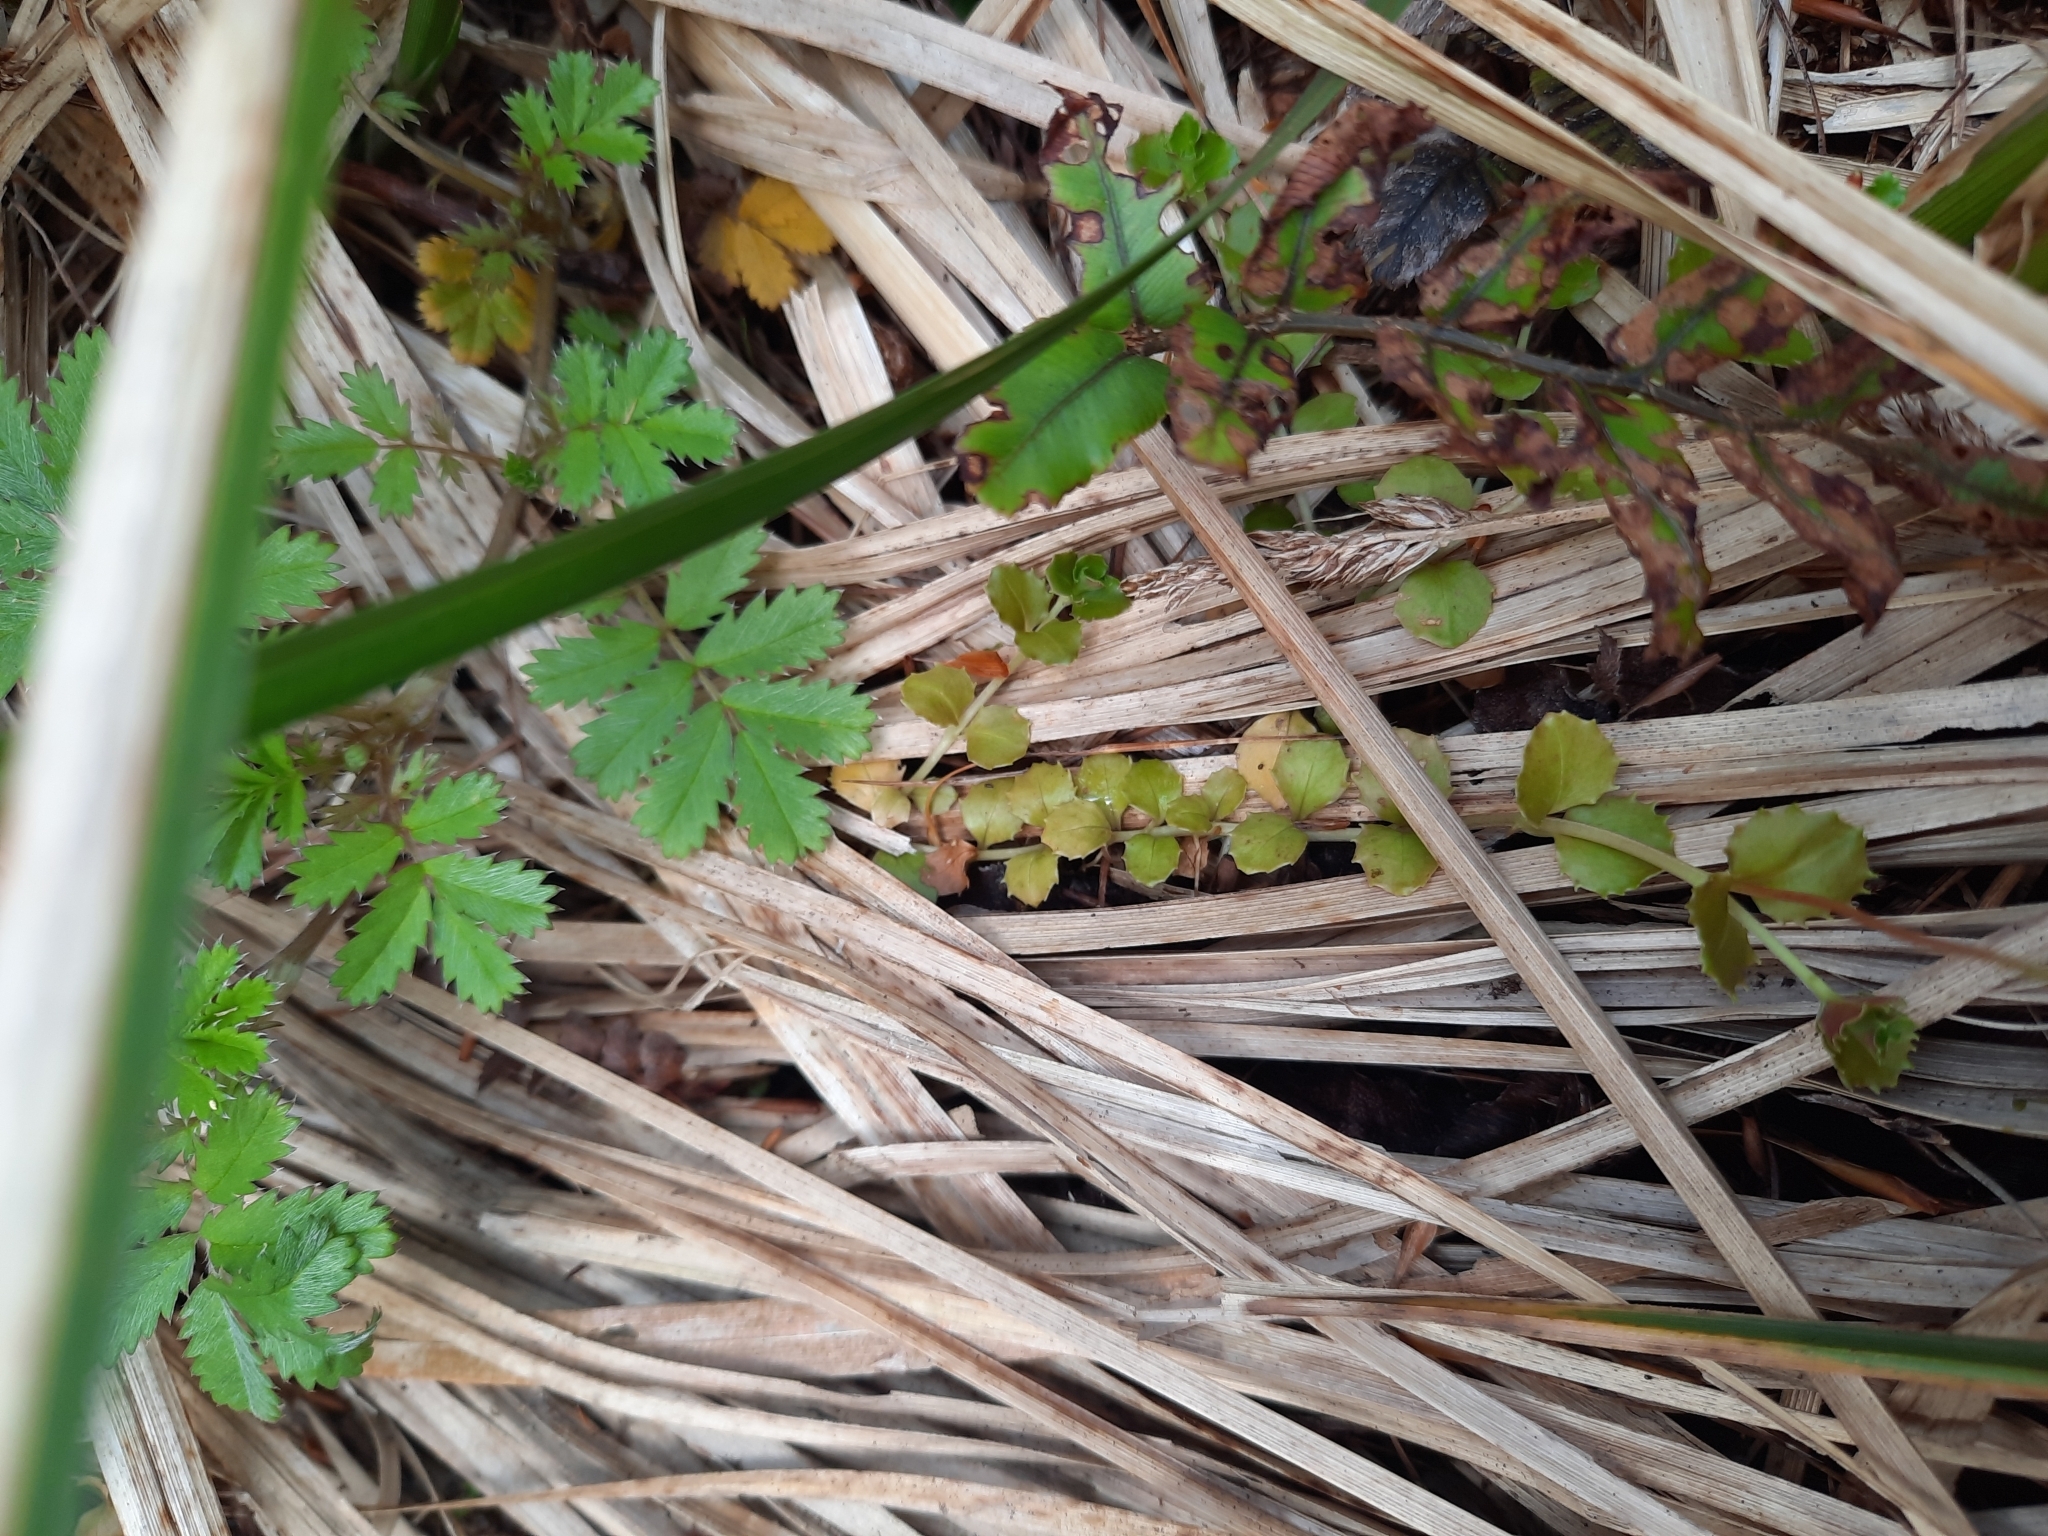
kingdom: Plantae
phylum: Tracheophyta
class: Magnoliopsida
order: Myrtales
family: Onagraceae
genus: Epilobium
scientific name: Epilobium pedunculare
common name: Rockery willowherb
